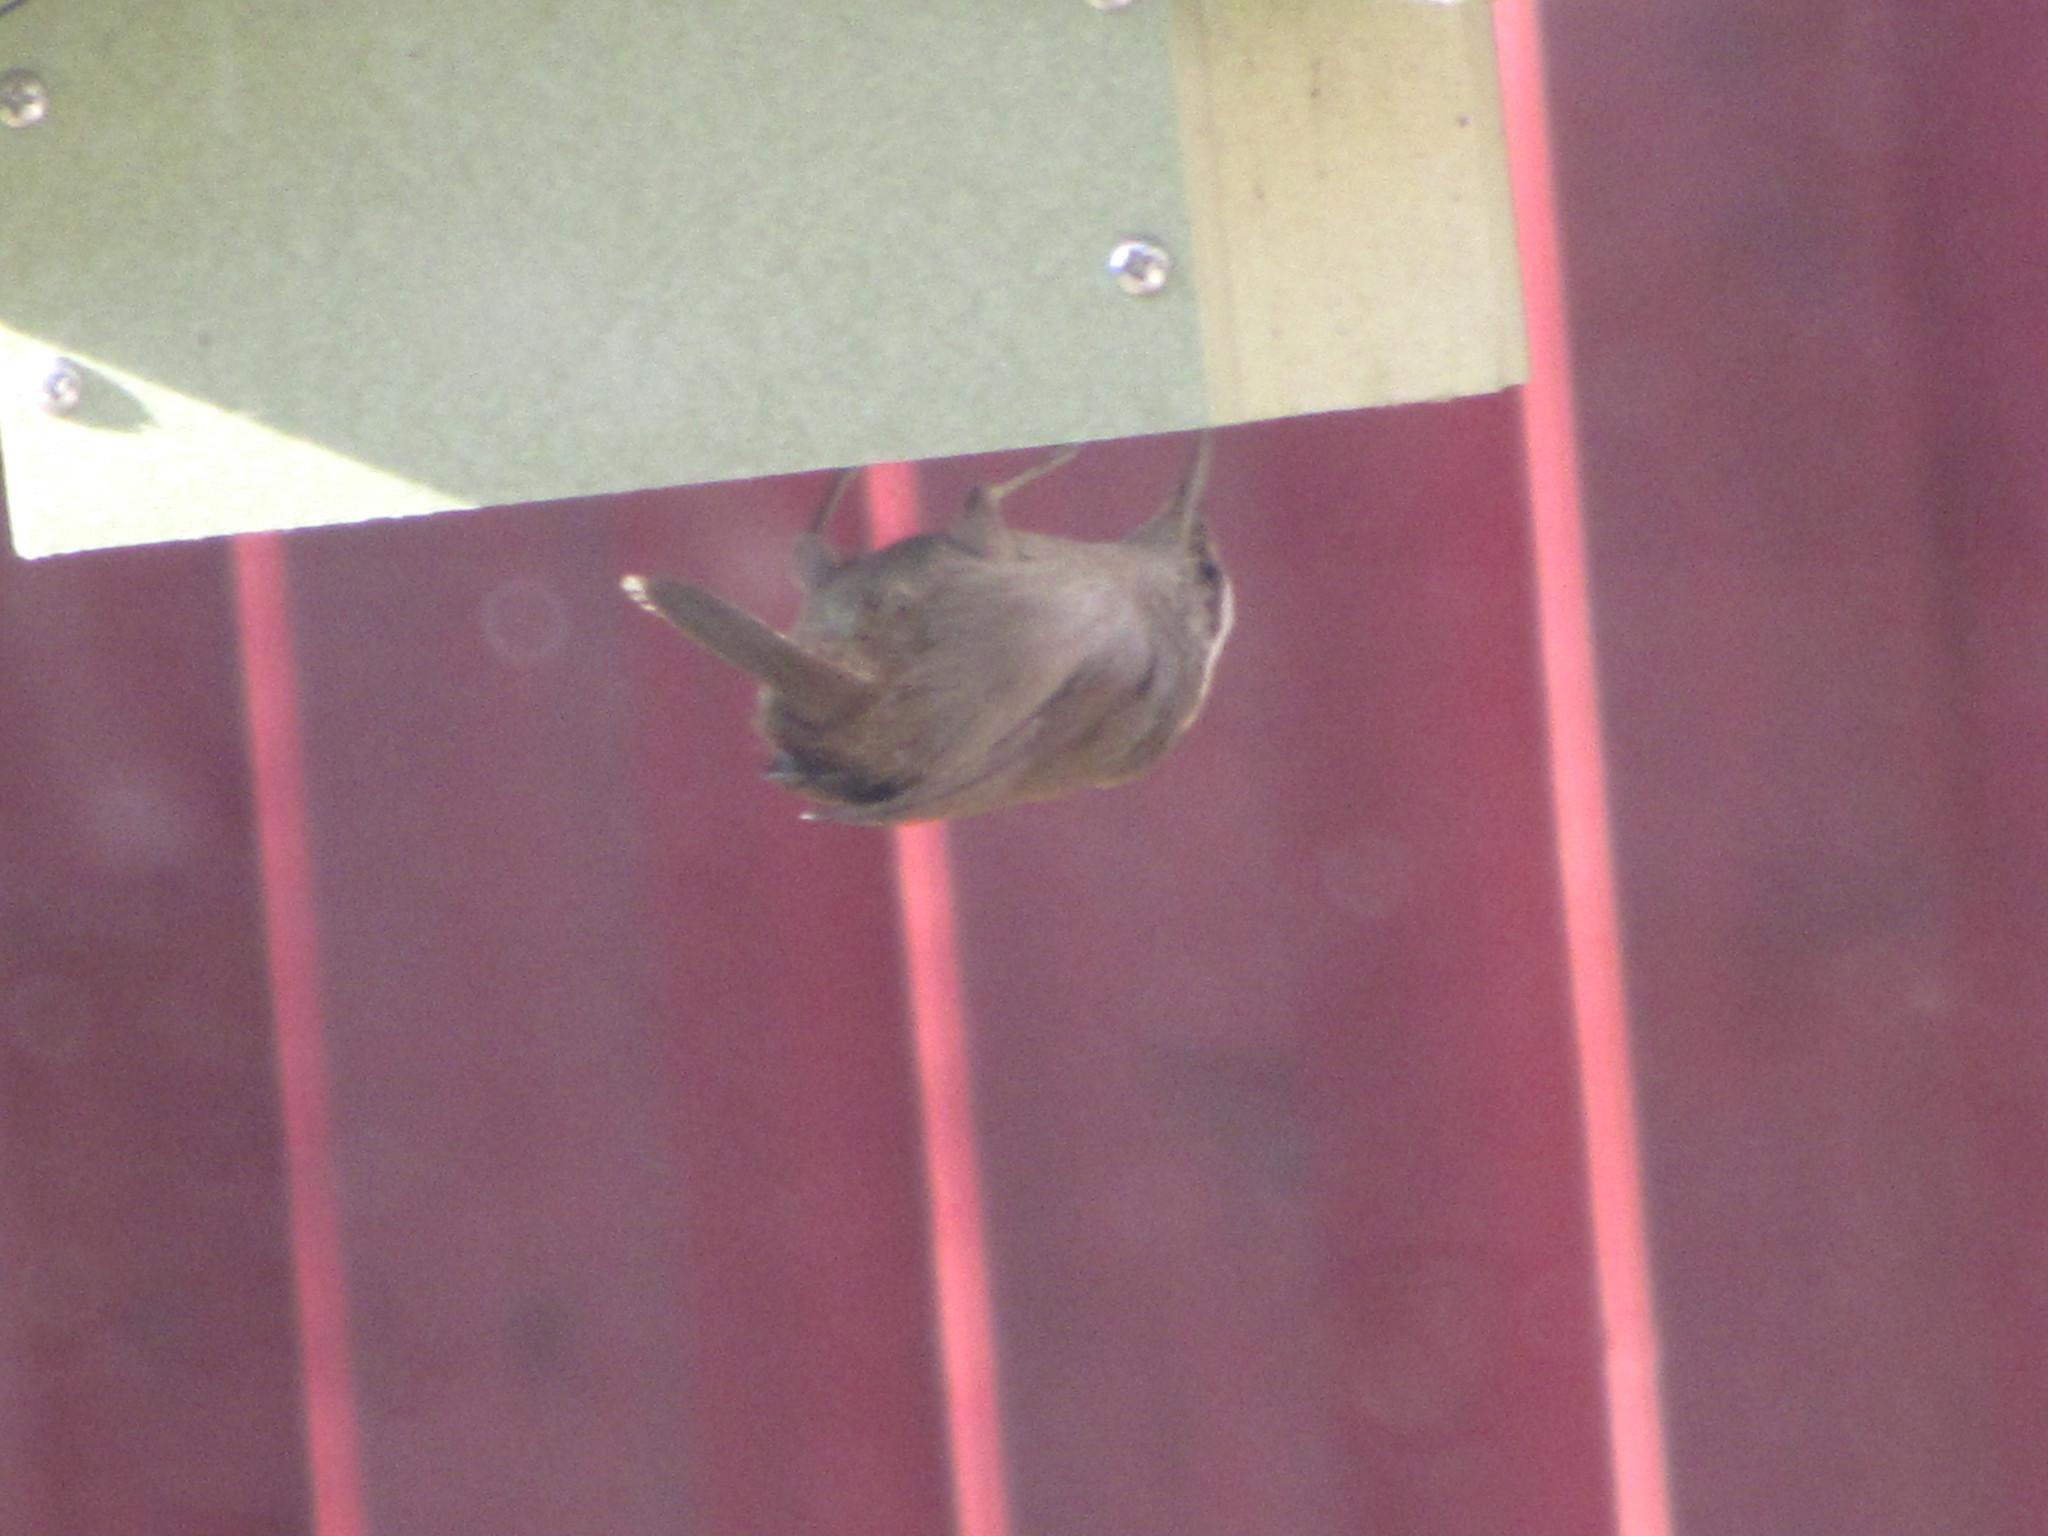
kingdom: Animalia
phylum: Chordata
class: Aves
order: Passeriformes
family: Troglodytidae
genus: Thryomanes
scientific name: Thryomanes bewickii
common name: Bewick's wren
